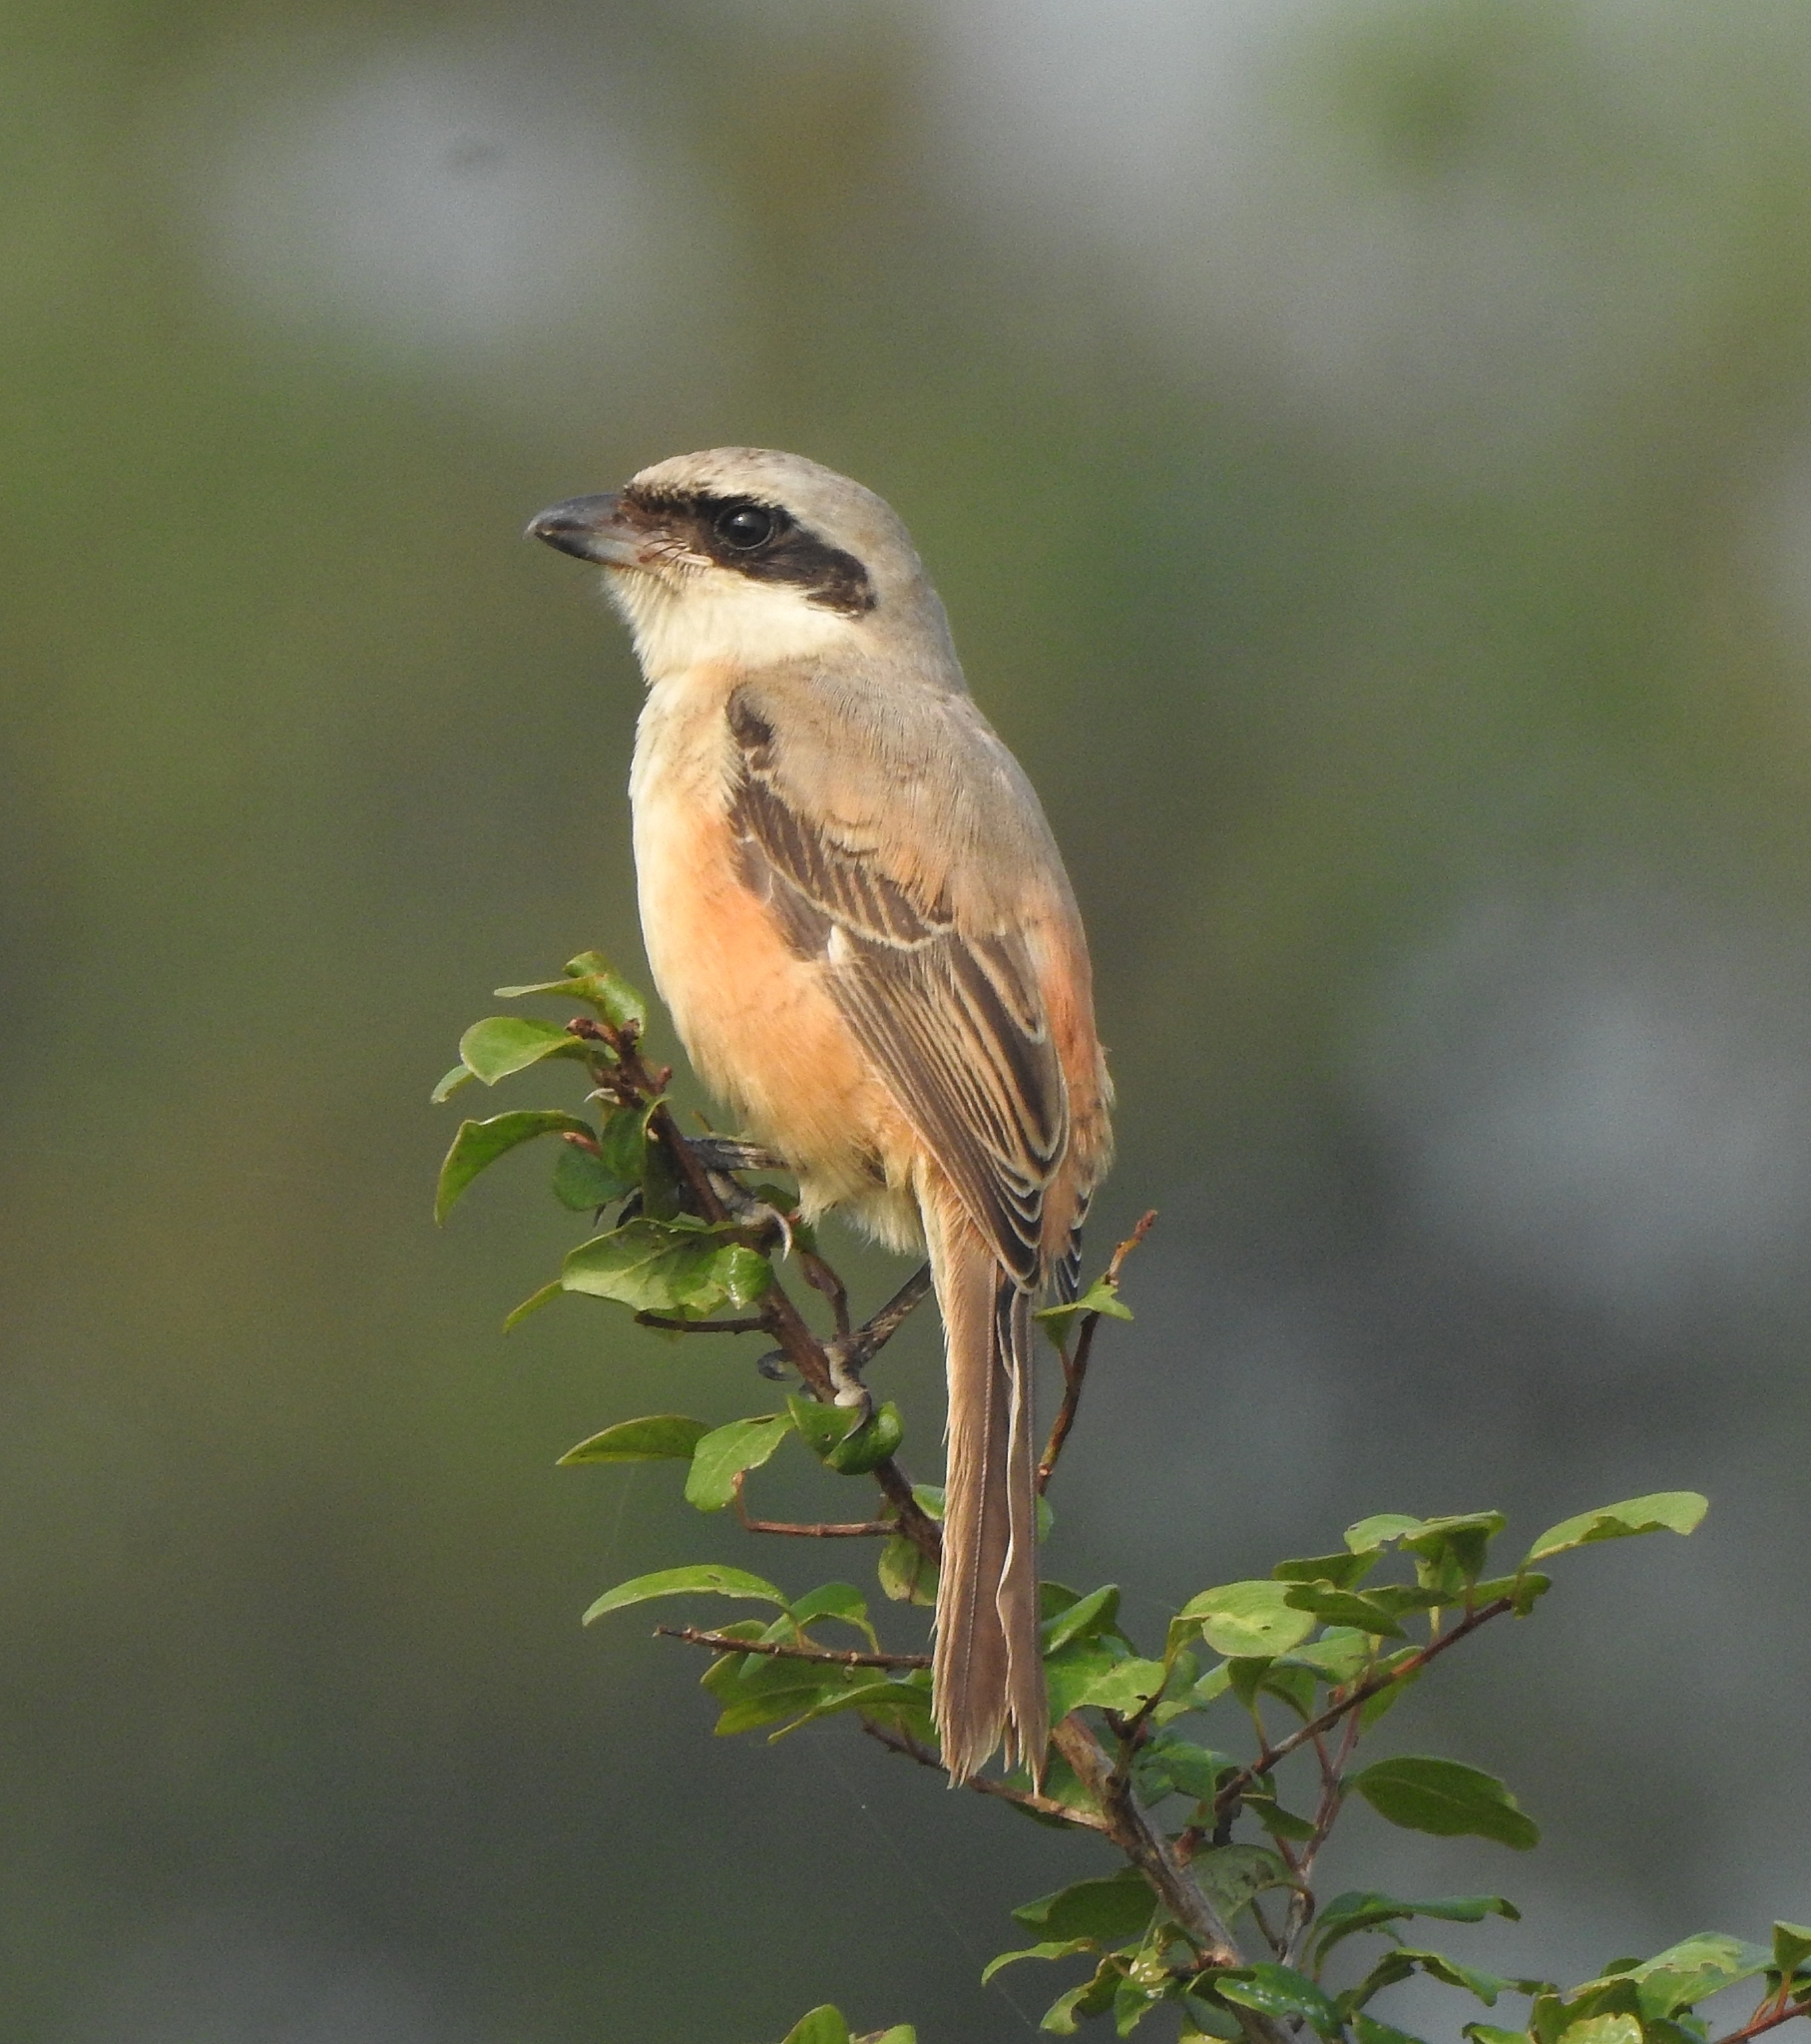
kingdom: Animalia
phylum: Chordata
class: Aves
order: Passeriformes
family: Laniidae
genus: Lanius
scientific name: Lanius schach
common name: Long-tailed shrike
